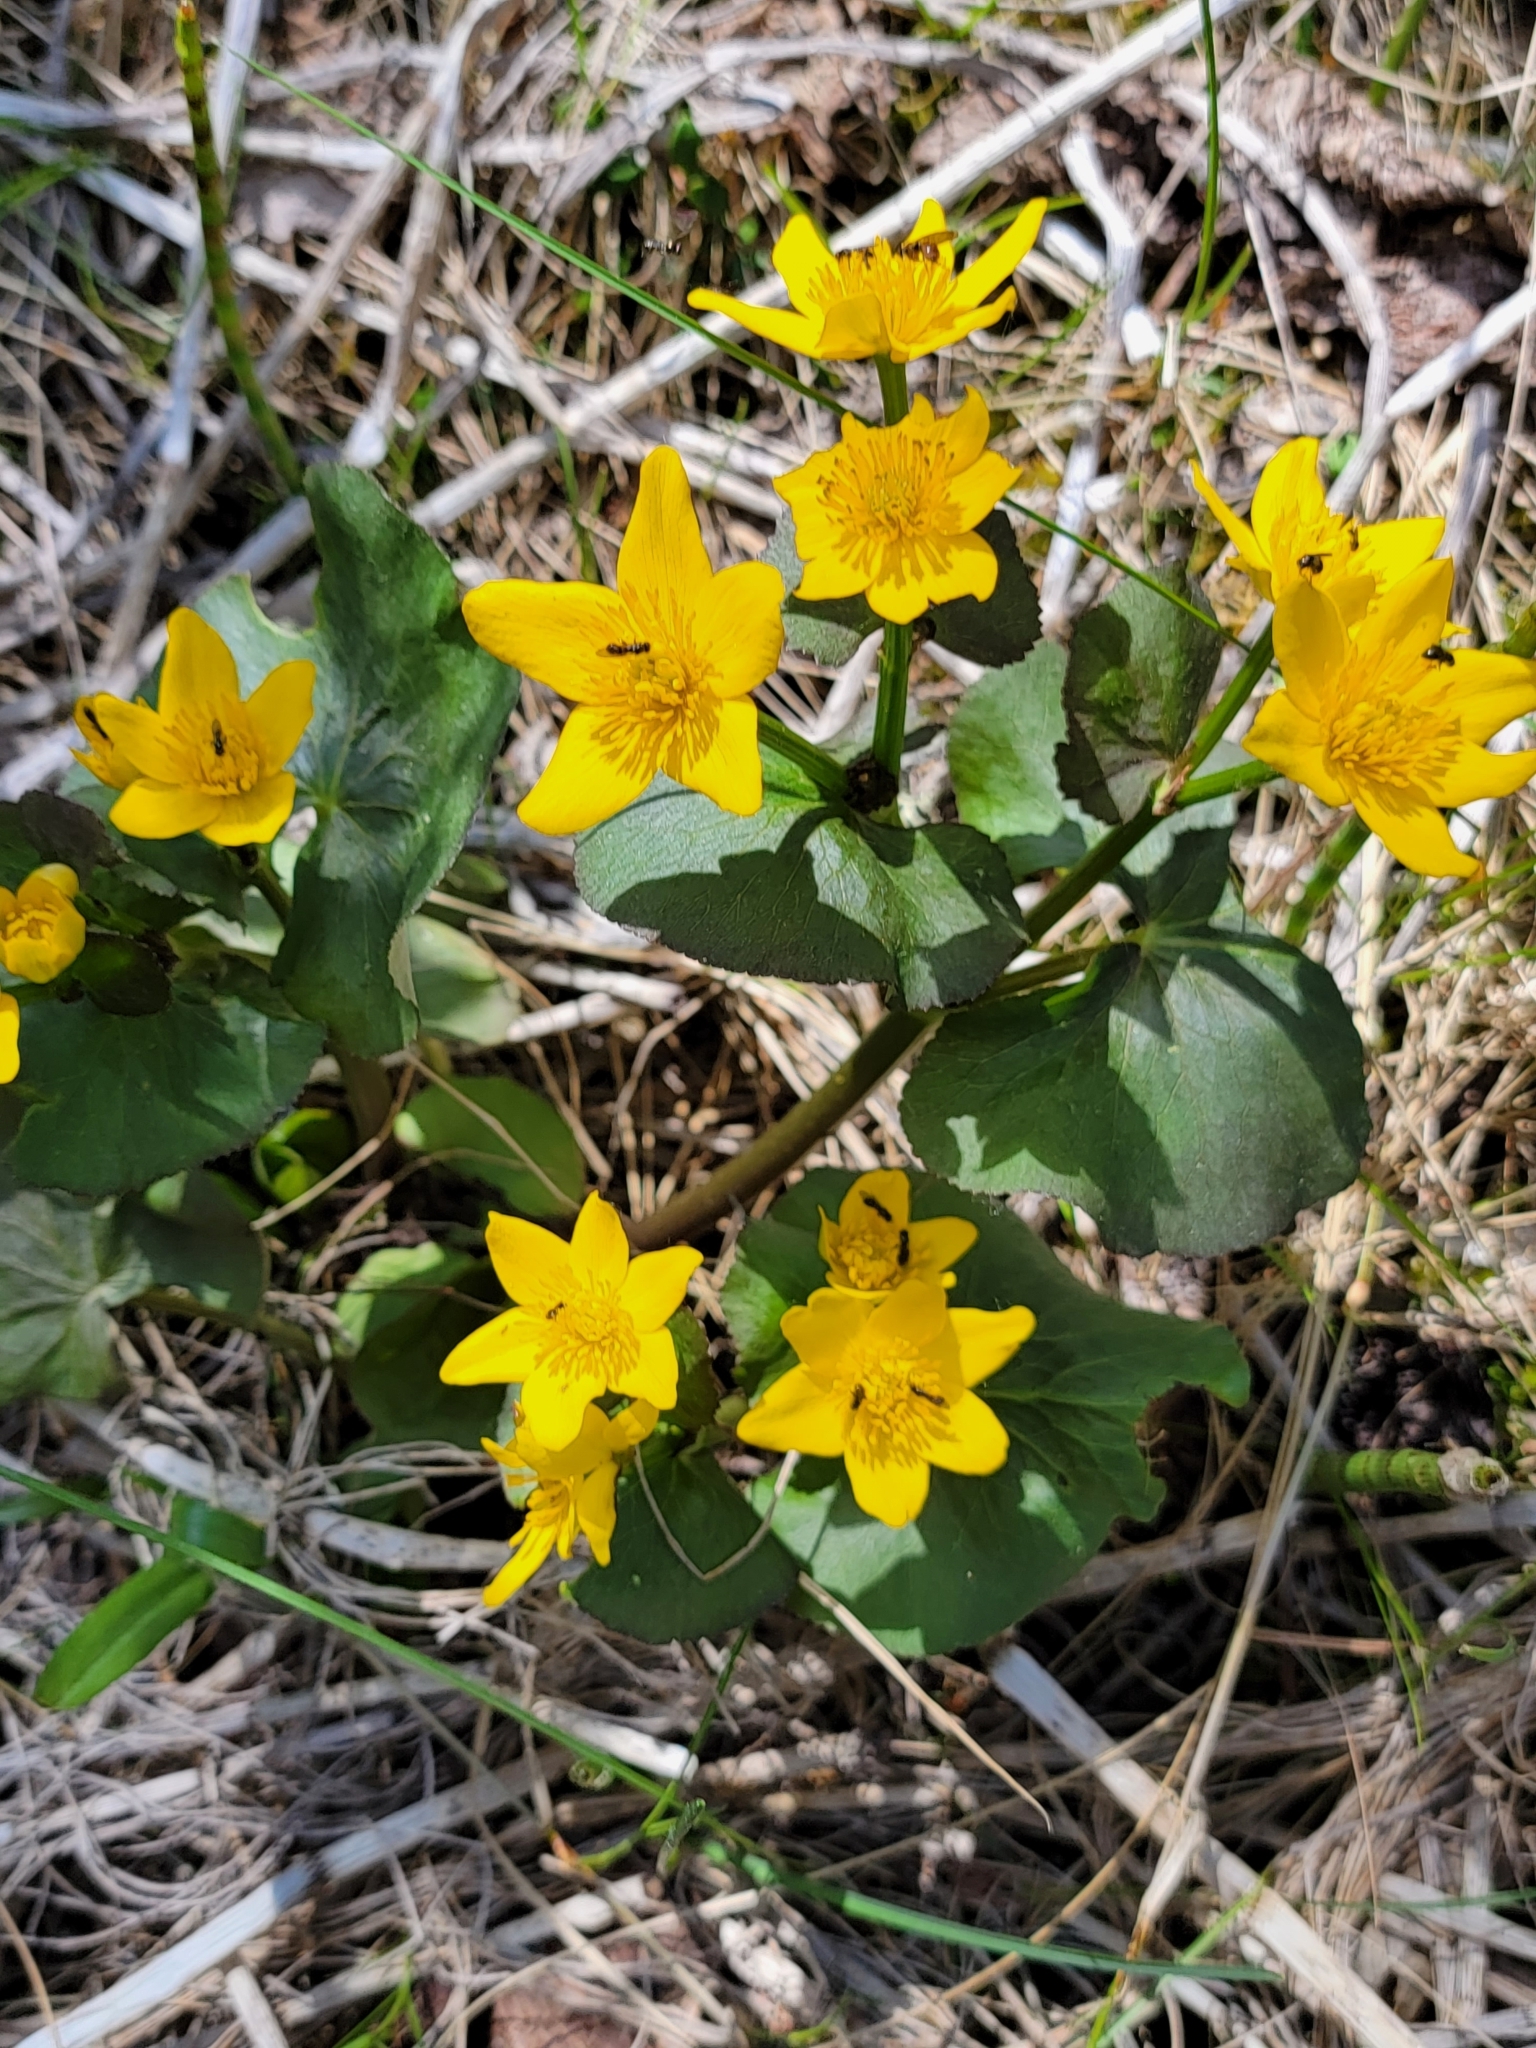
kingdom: Plantae
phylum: Tracheophyta
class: Magnoliopsida
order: Ranunculales
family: Ranunculaceae
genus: Caltha
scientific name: Caltha palustris
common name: Marsh marigold
